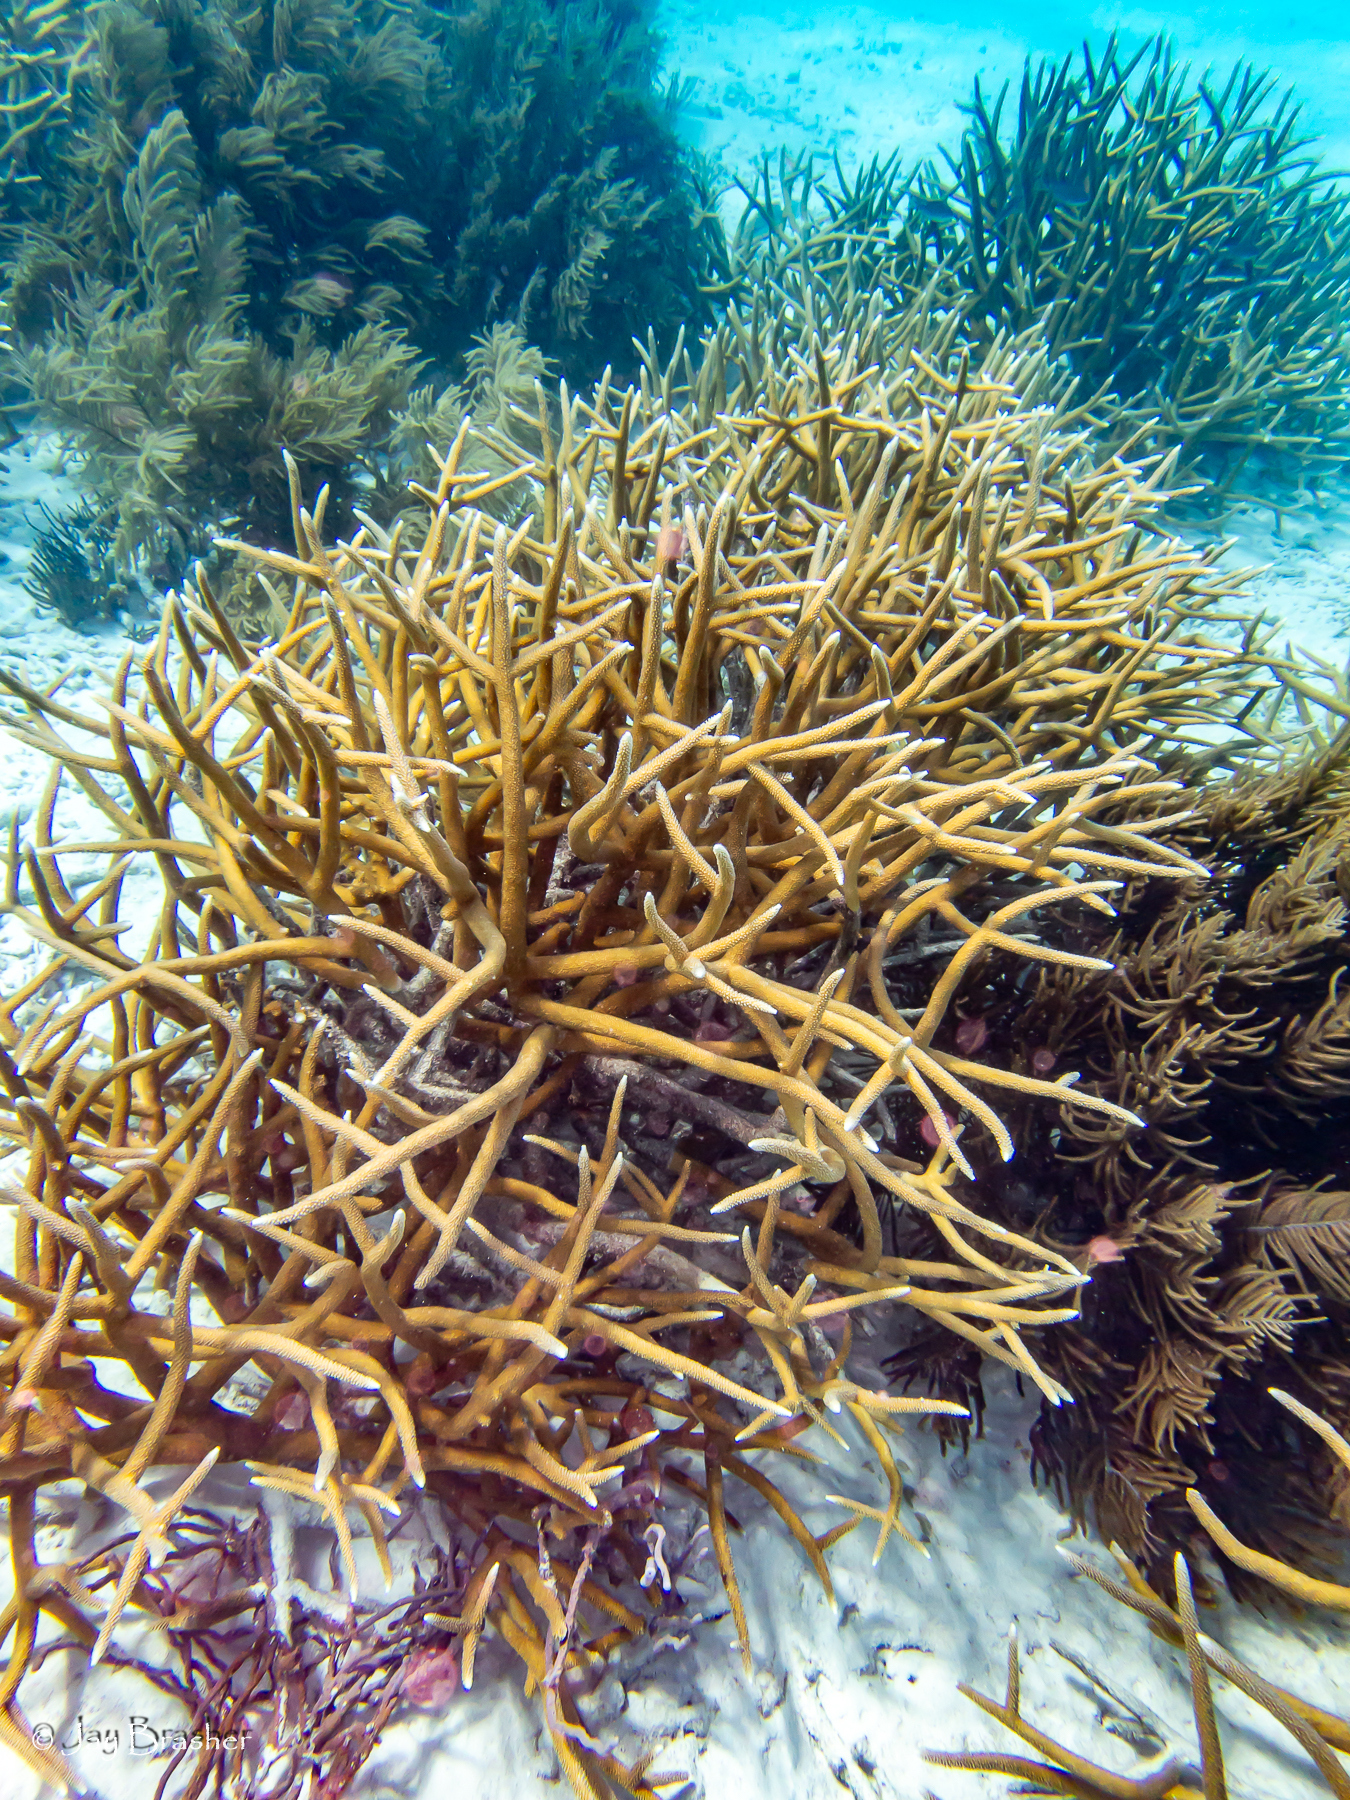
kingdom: Animalia
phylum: Cnidaria
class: Anthozoa
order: Scleractinia
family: Acroporidae
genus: Acropora
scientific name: Acropora cervicornis
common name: Staghorn coral
